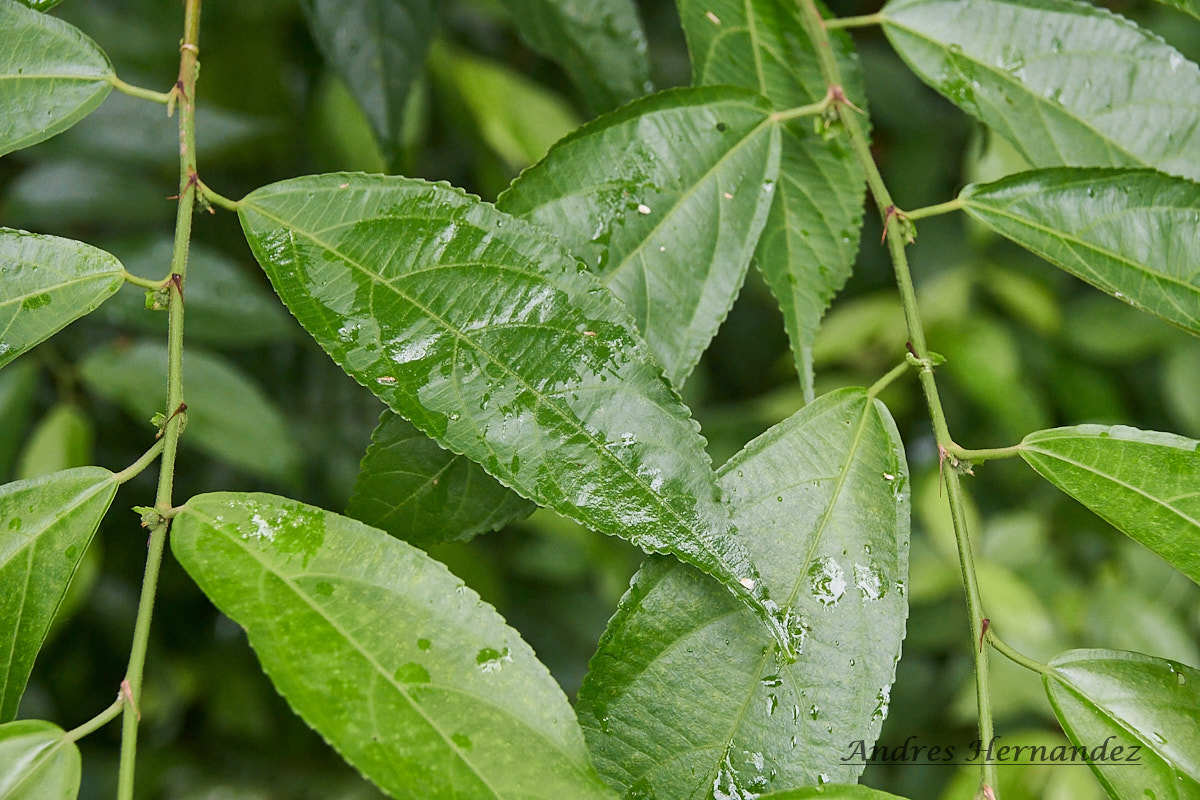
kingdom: Plantae
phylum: Tracheophyta
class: Magnoliopsida
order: Malpighiales
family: Euphorbiaceae
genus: Acalypha
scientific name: Acalypha diversifolia
